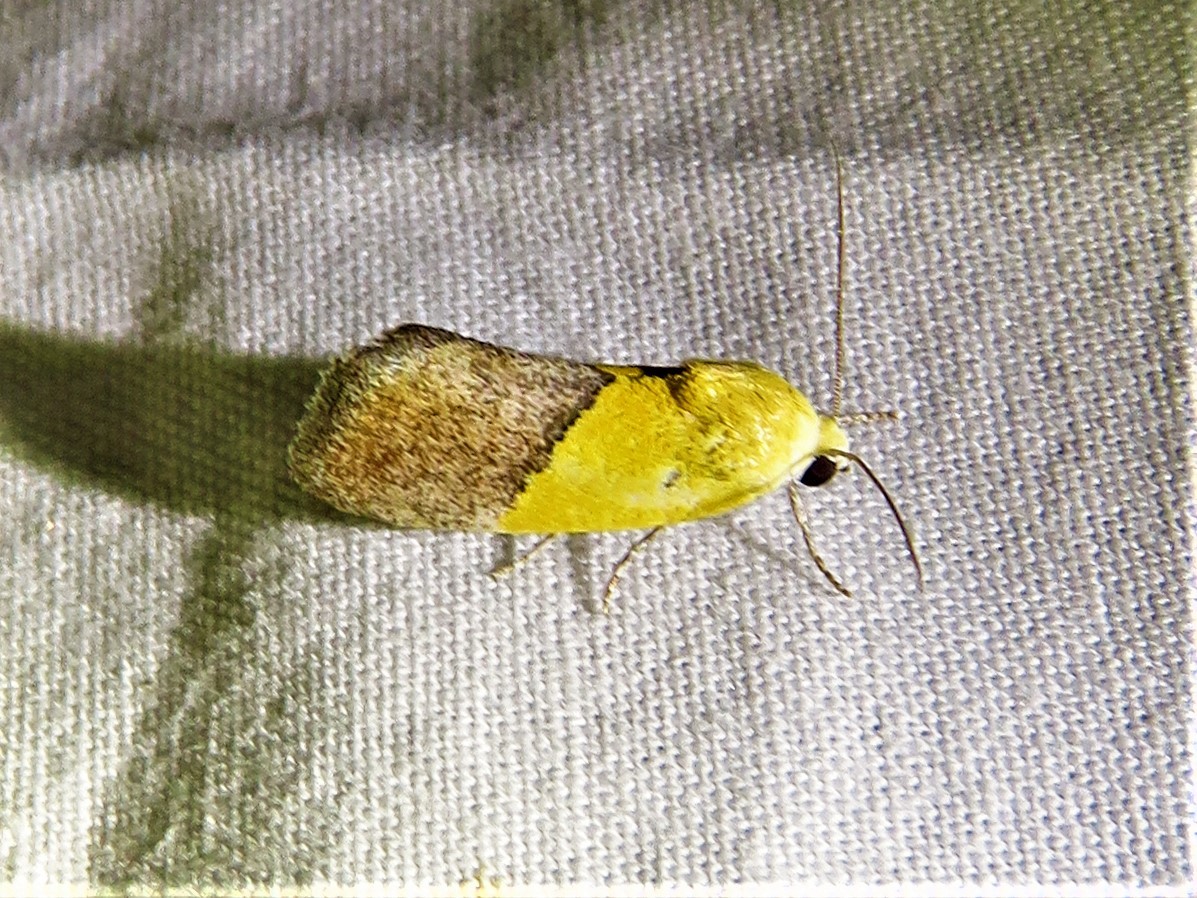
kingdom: Animalia
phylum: Arthropoda
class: Insecta
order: Lepidoptera
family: Noctuidae
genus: Acontia
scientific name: Acontia semiflava
